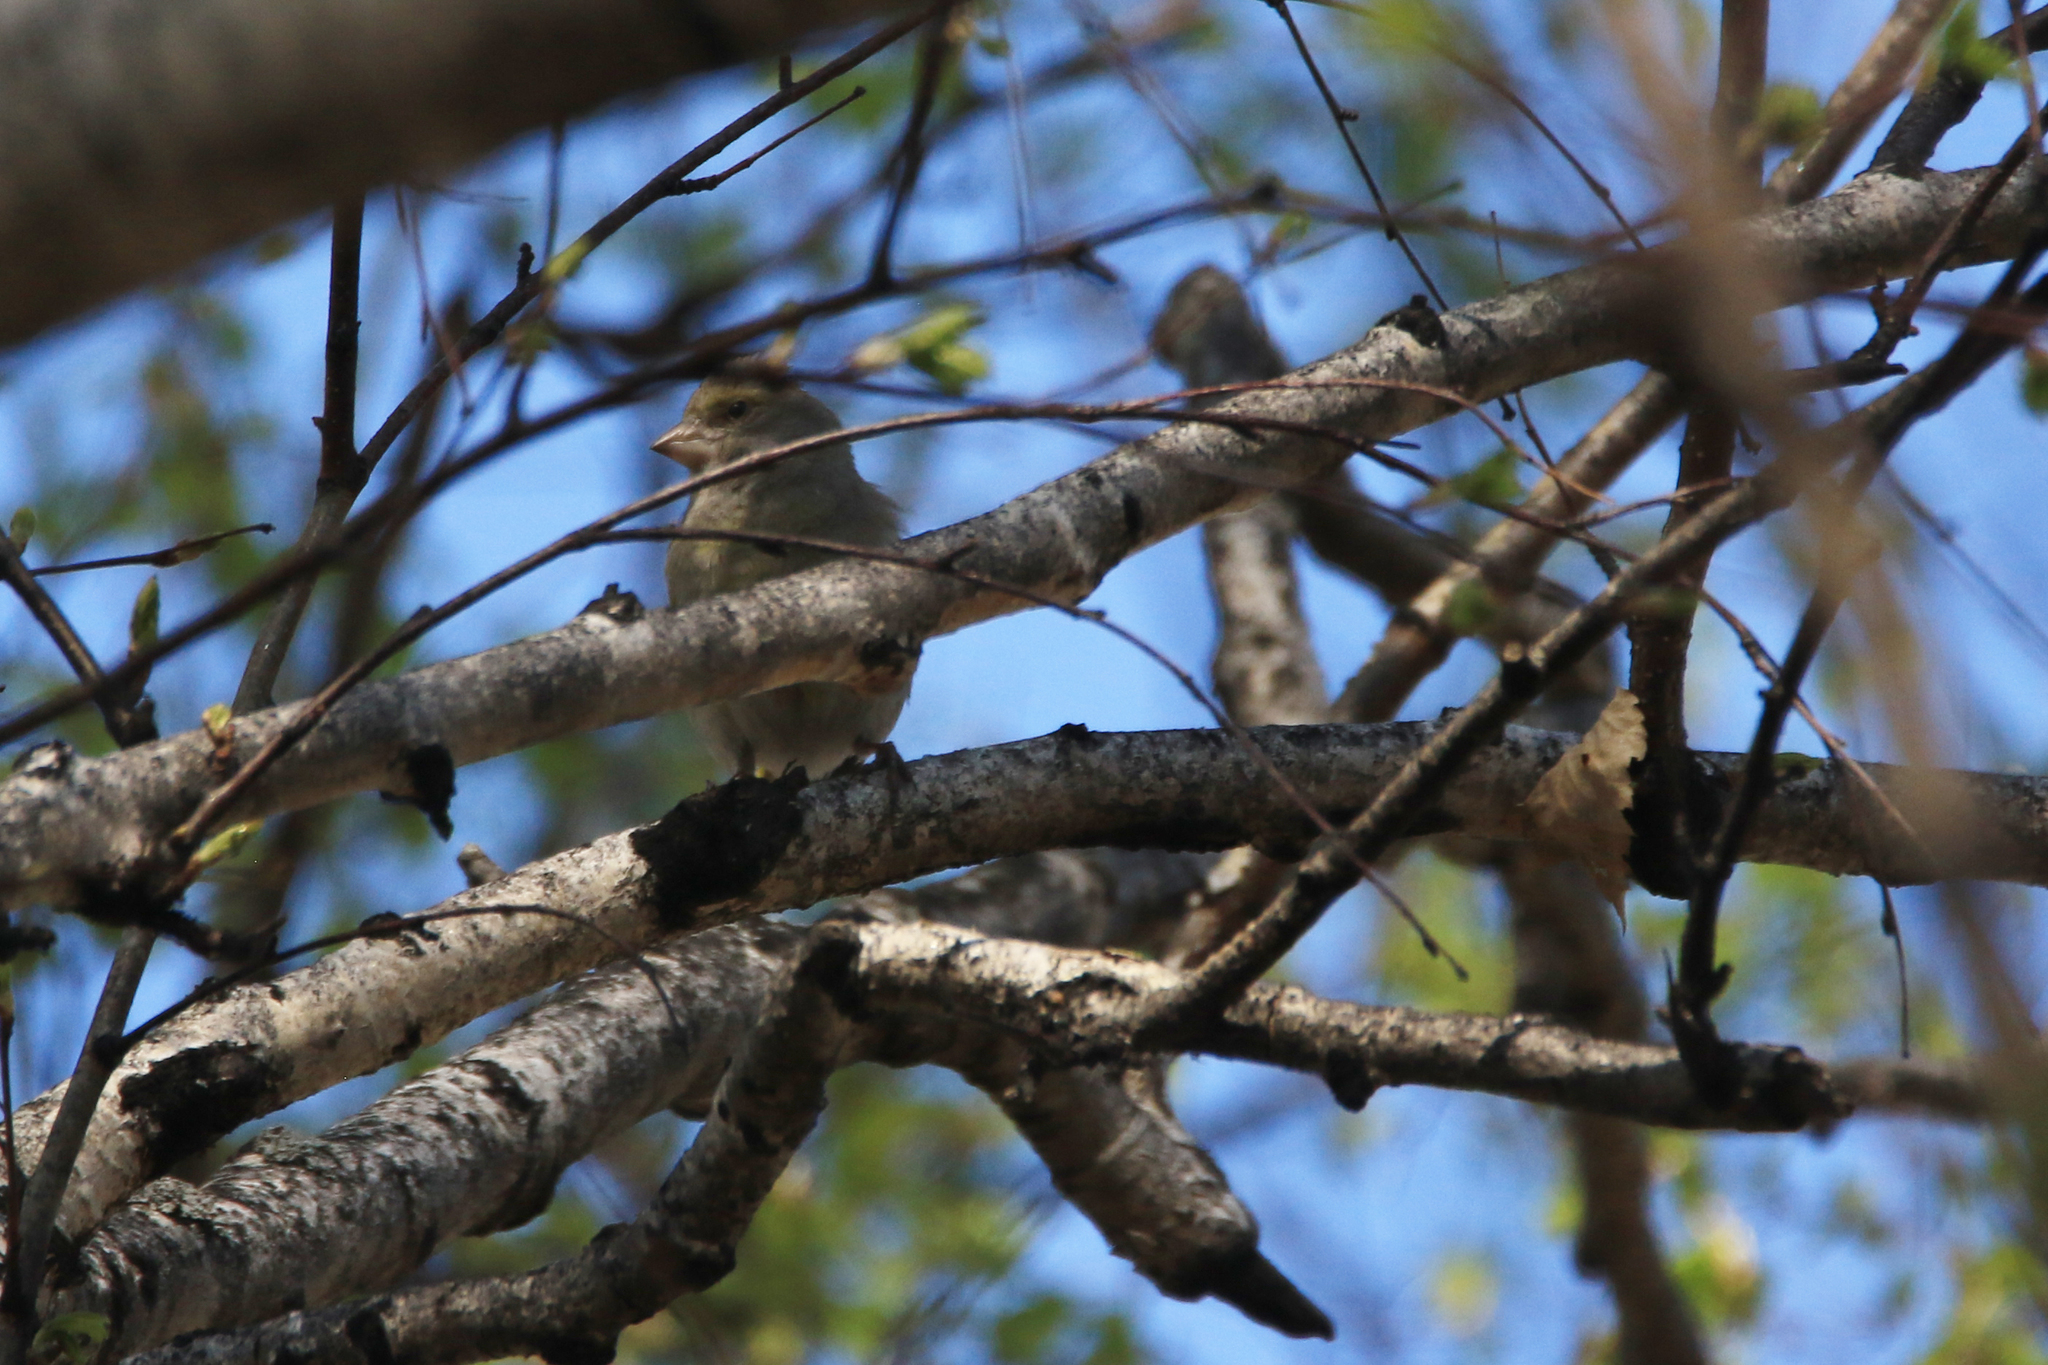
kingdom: Plantae
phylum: Tracheophyta
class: Liliopsida
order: Poales
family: Poaceae
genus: Chloris
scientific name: Chloris chloris
